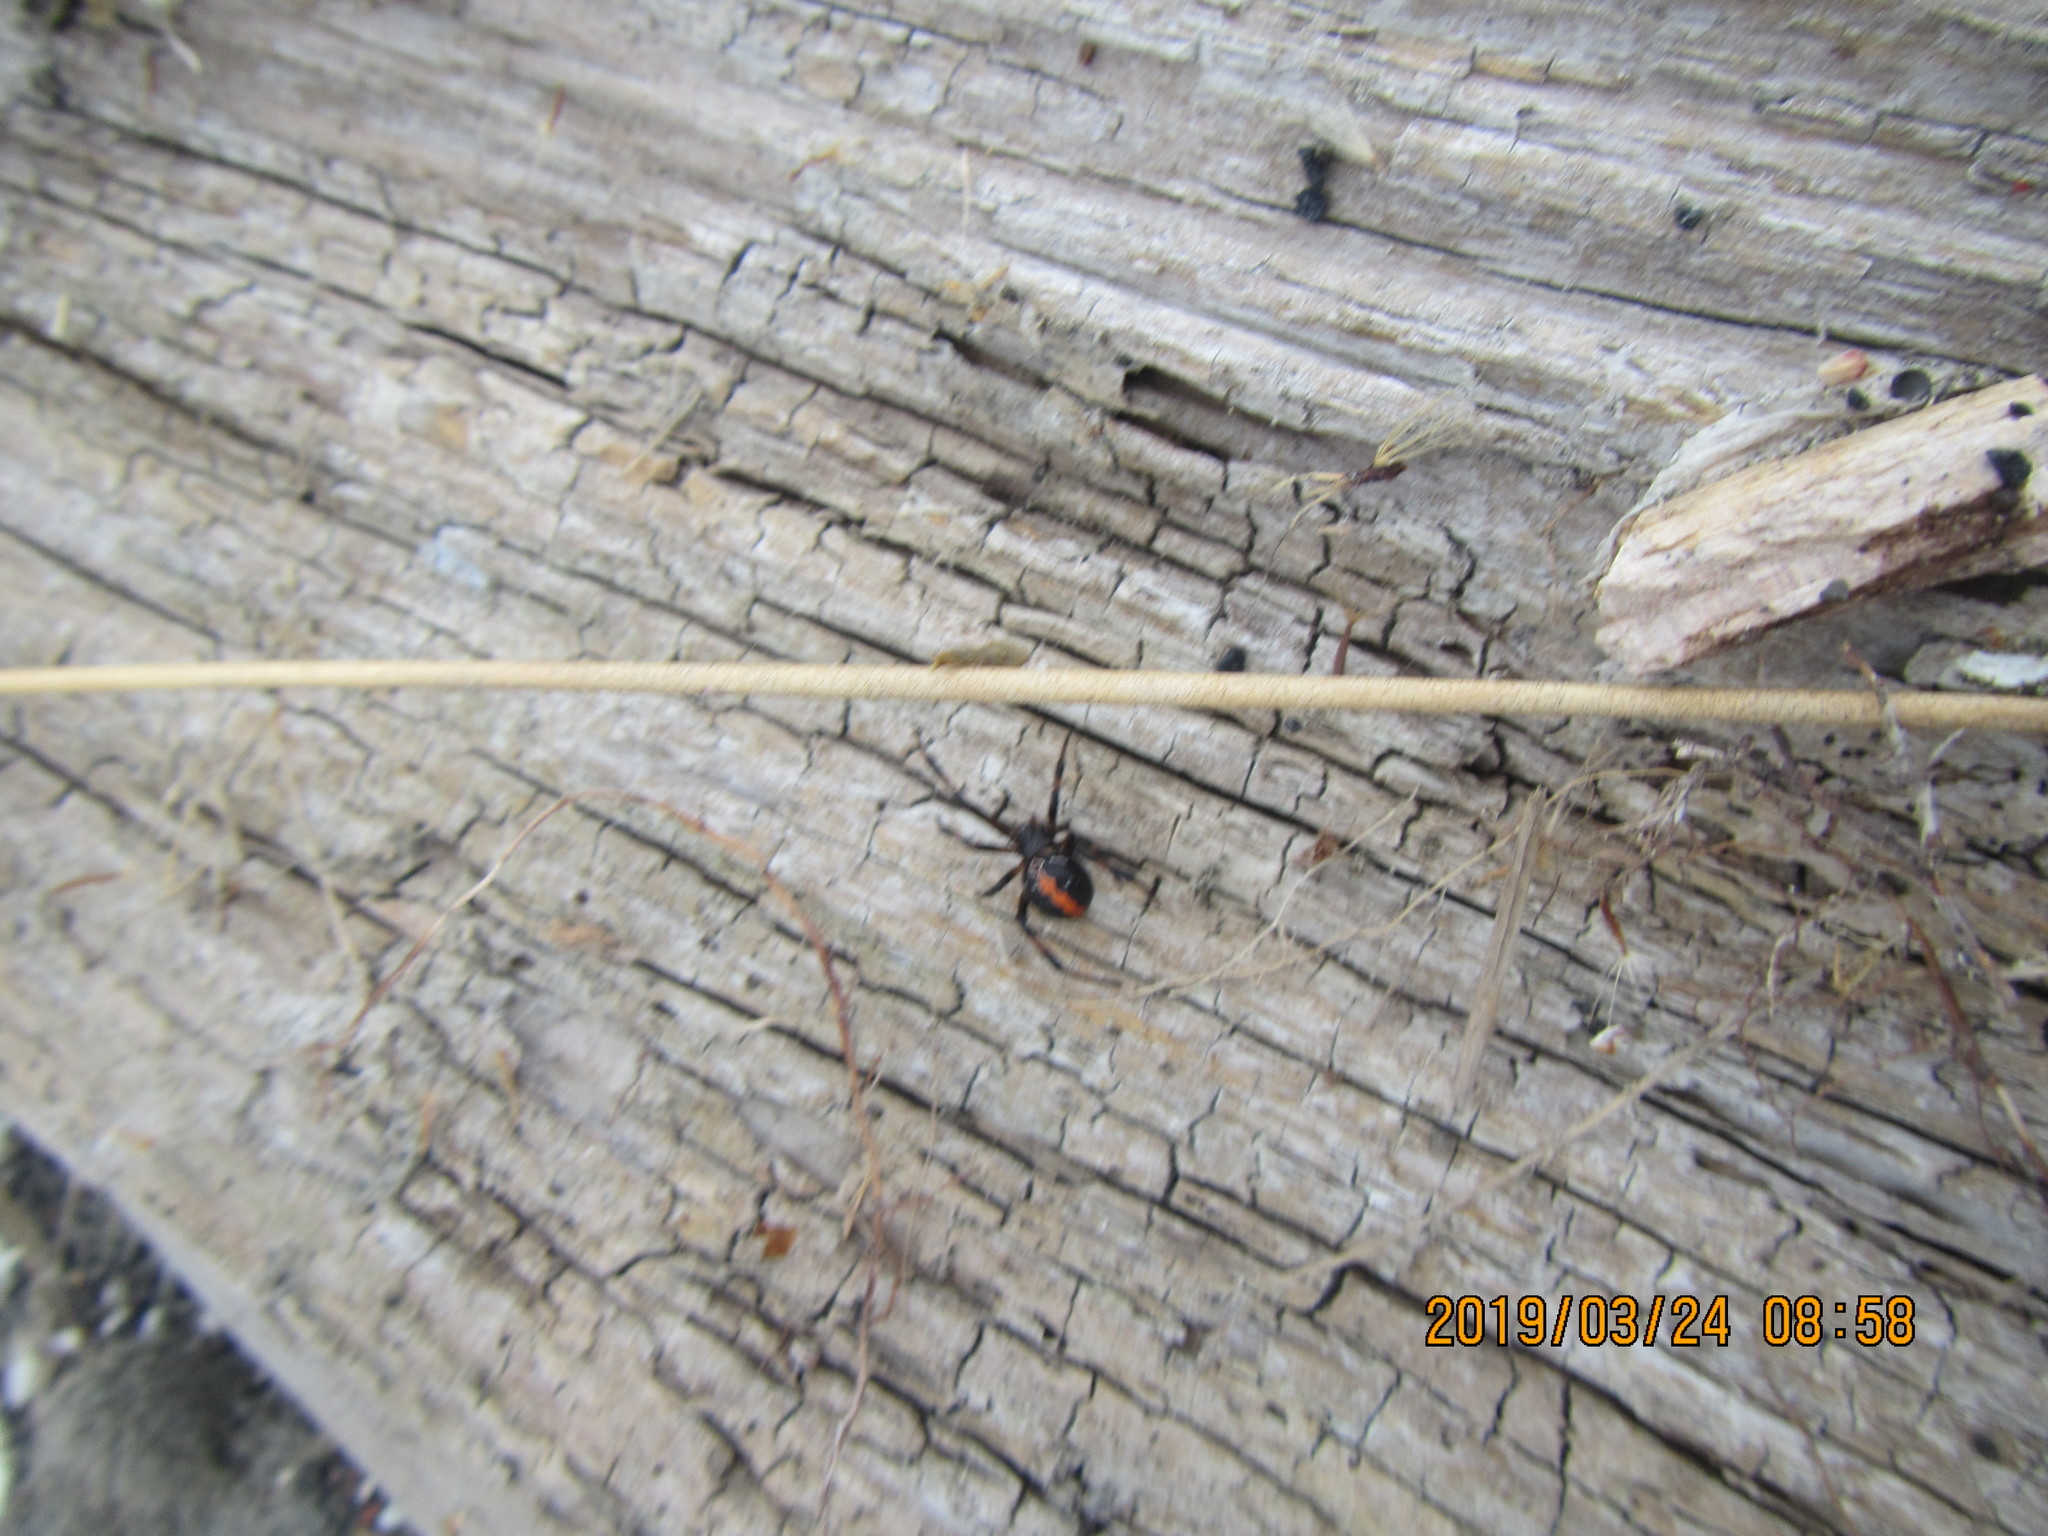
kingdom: Animalia
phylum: Arthropoda
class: Arachnida
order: Araneae
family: Theridiidae
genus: Latrodectus
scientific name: Latrodectus katipo
